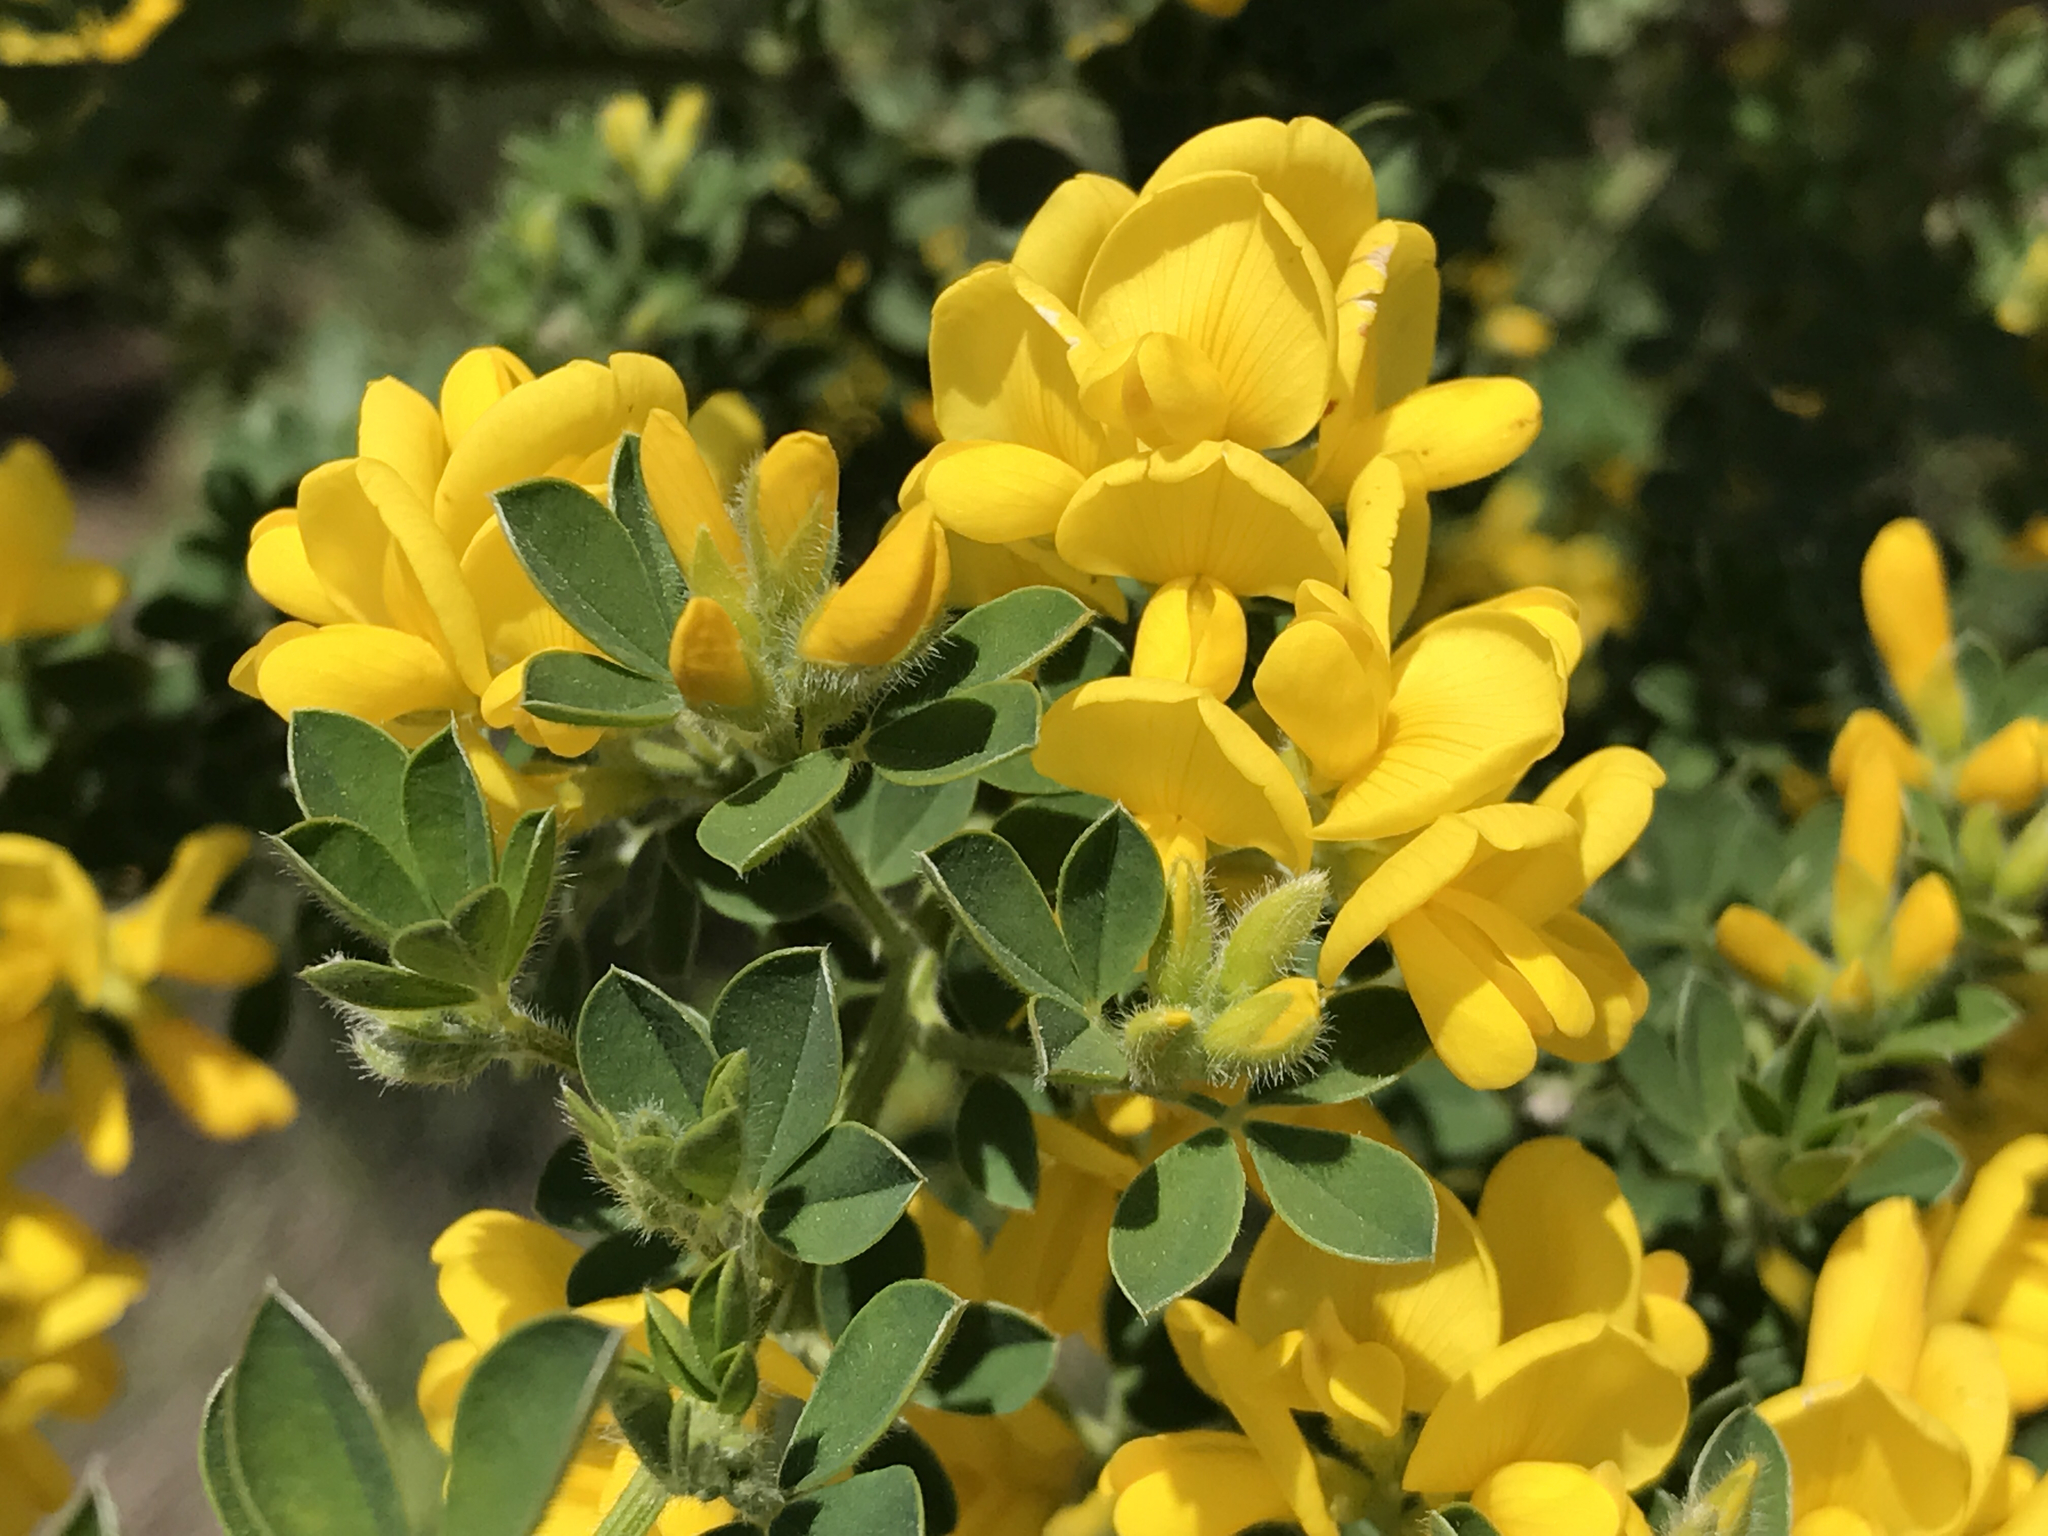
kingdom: Plantae
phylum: Tracheophyta
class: Magnoliopsida
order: Fabales
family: Fabaceae
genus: Genista
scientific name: Genista monspessulana
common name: Montpellier broom
